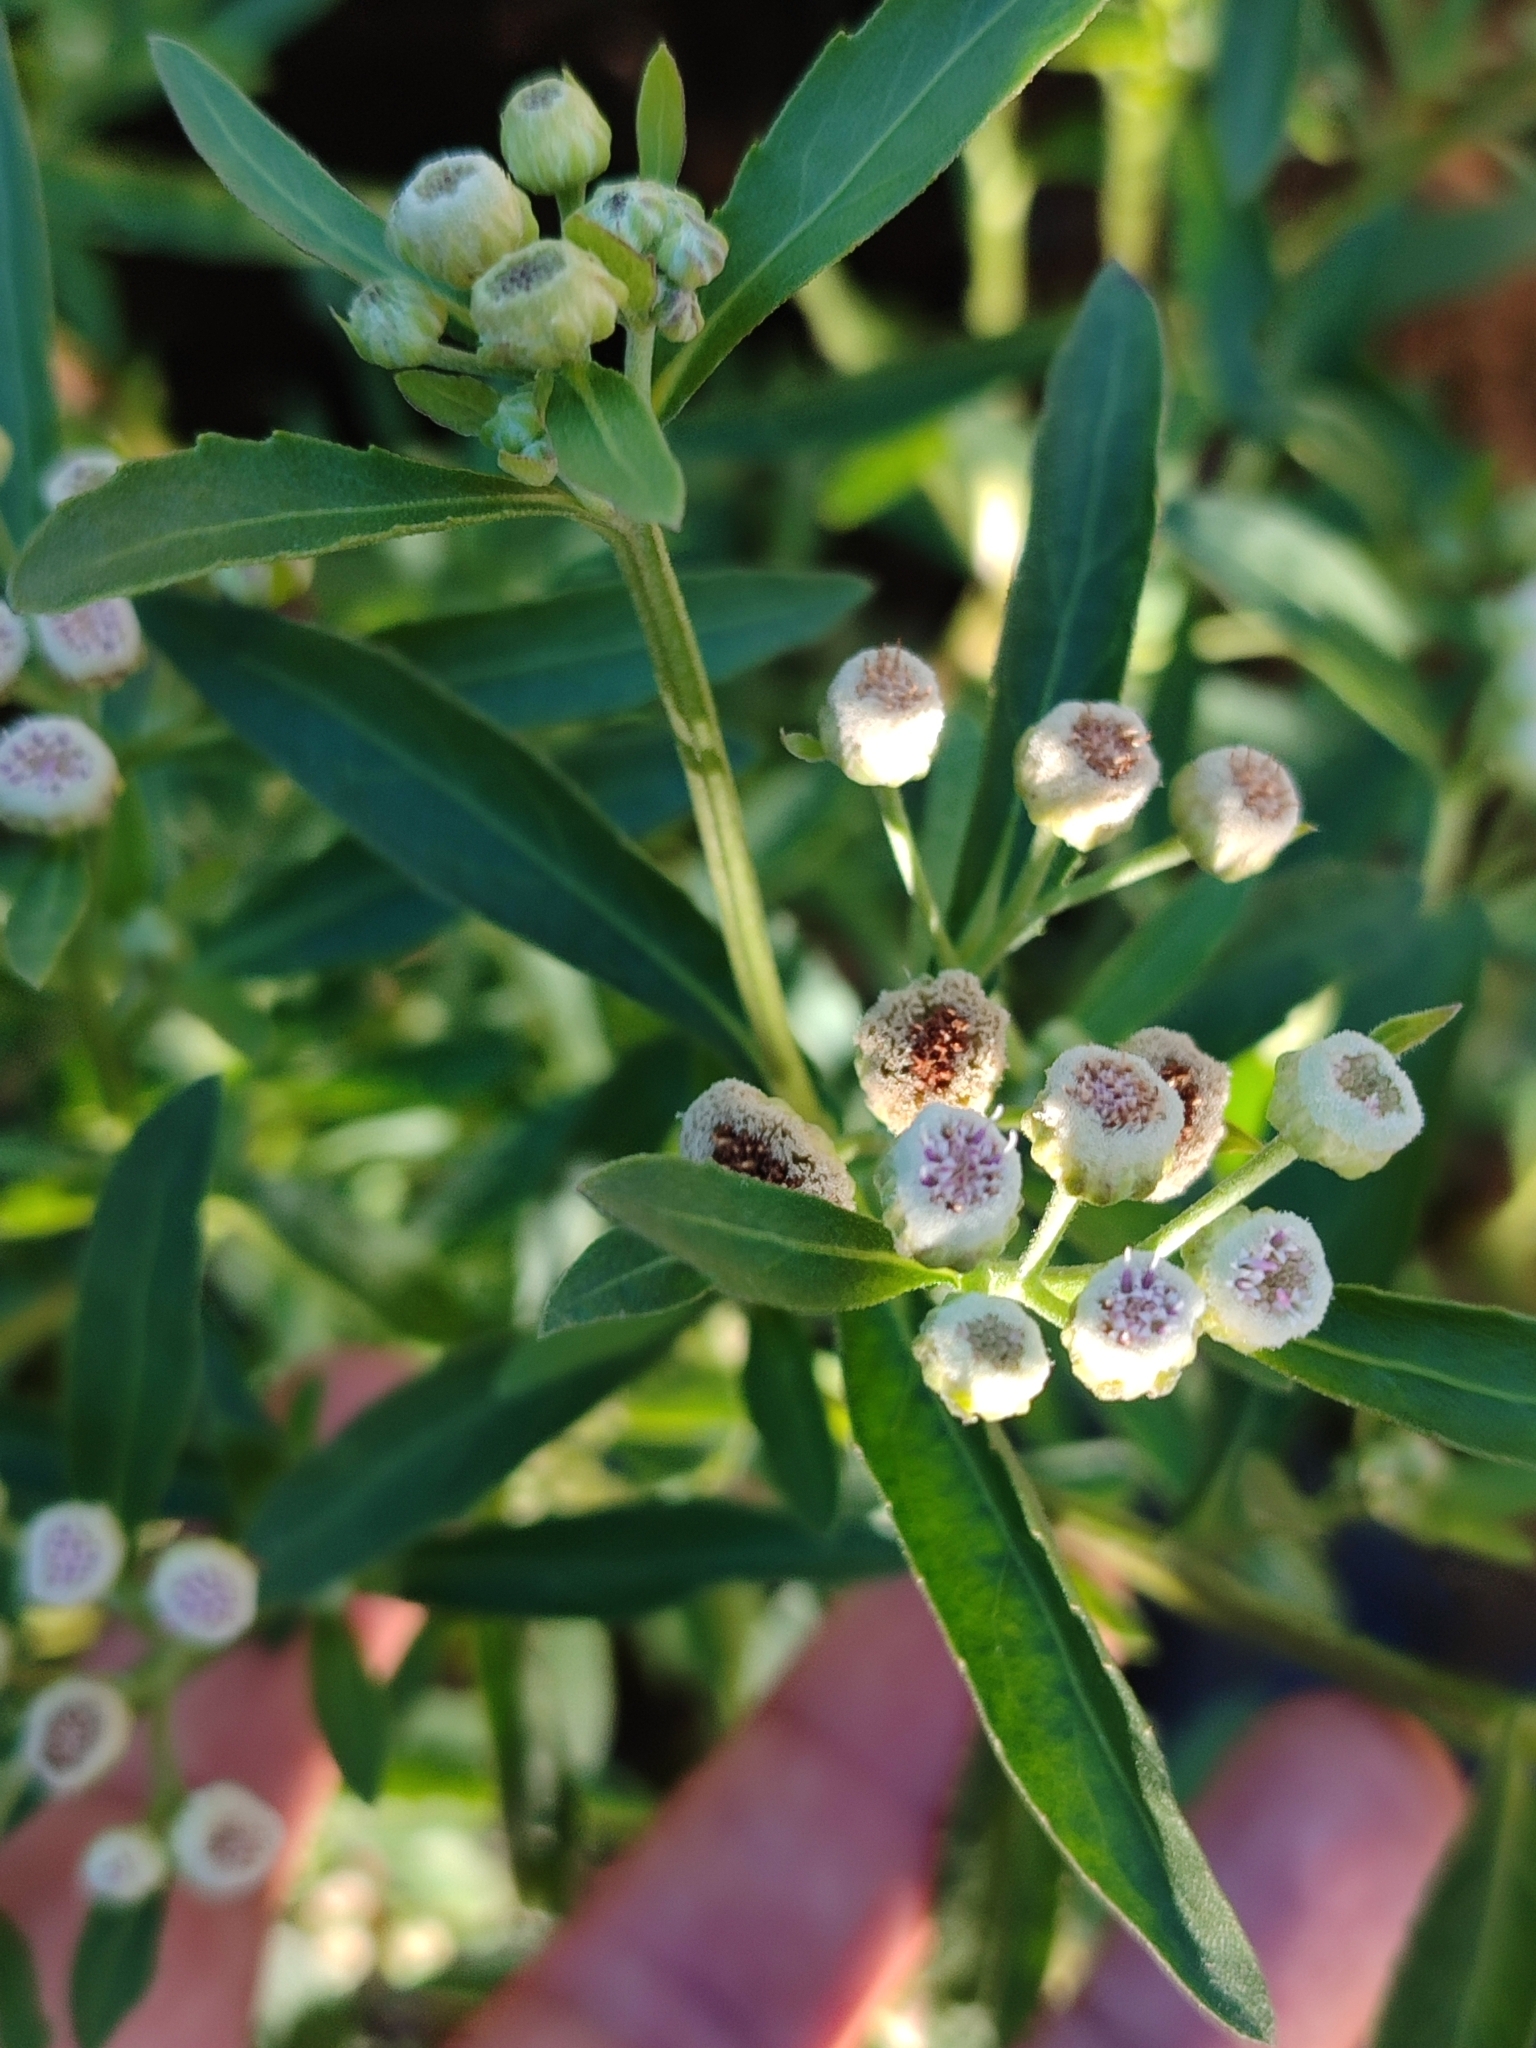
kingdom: Plantae
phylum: Tracheophyta
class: Magnoliopsida
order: Asterales
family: Asteraceae
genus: Pluchea
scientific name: Pluchea sagittalis
